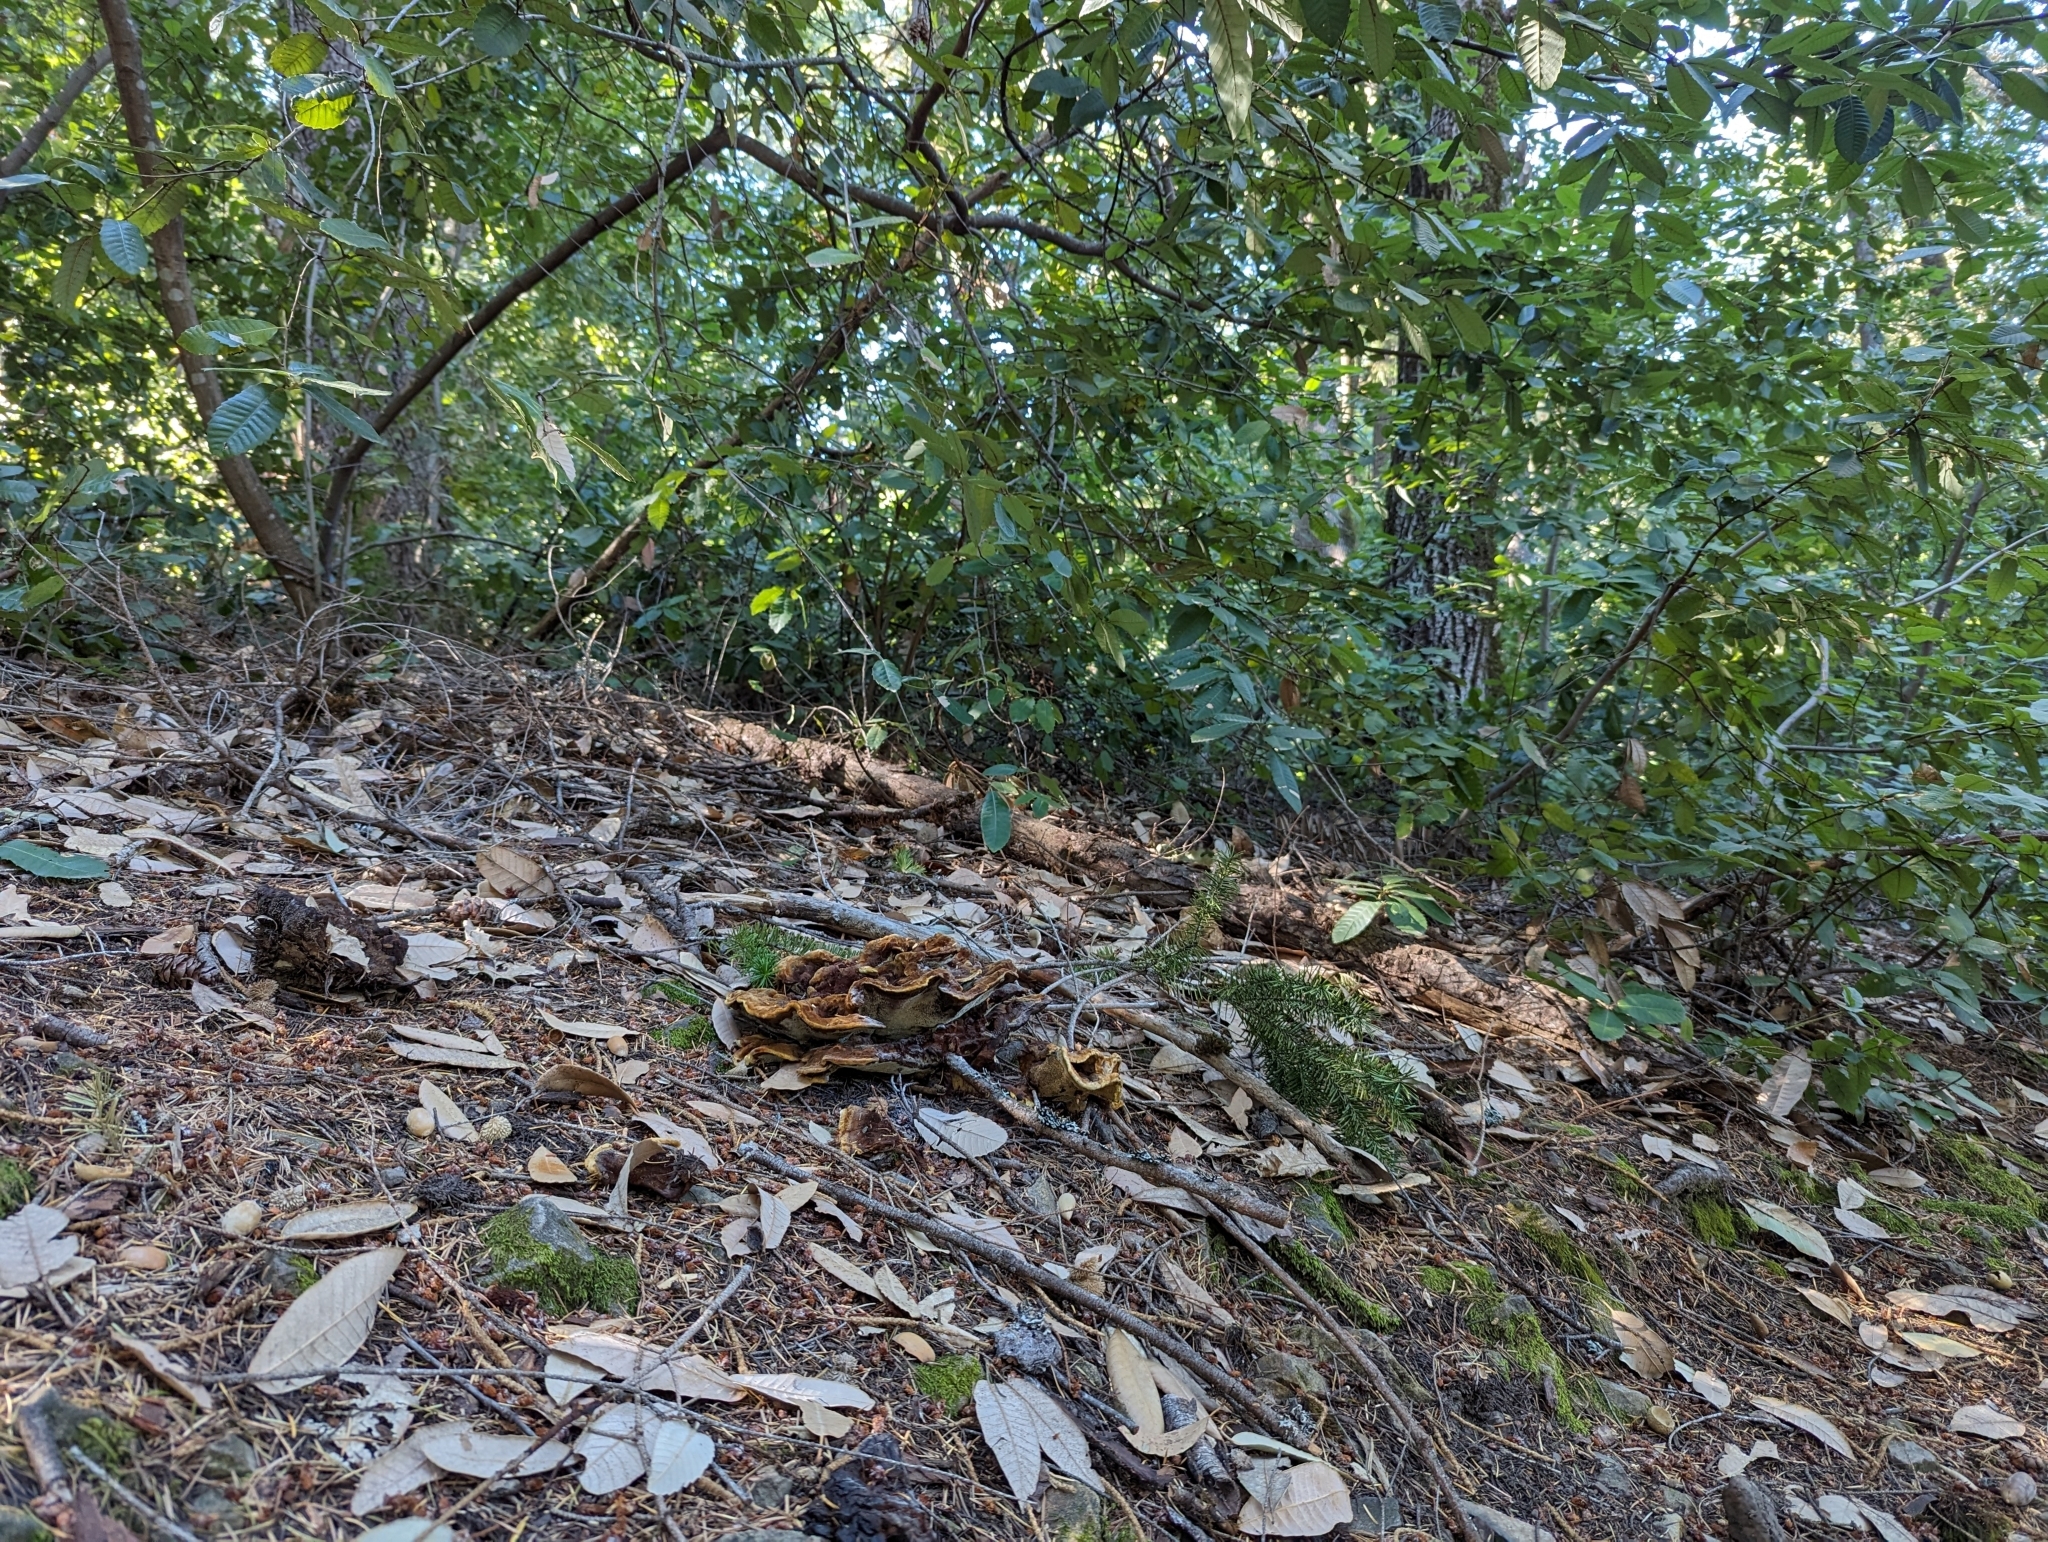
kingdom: Fungi
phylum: Basidiomycota
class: Agaricomycetes
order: Polyporales
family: Laetiporaceae
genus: Phaeolus
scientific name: Phaeolus schweinitzii
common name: Dyer's mazegill
